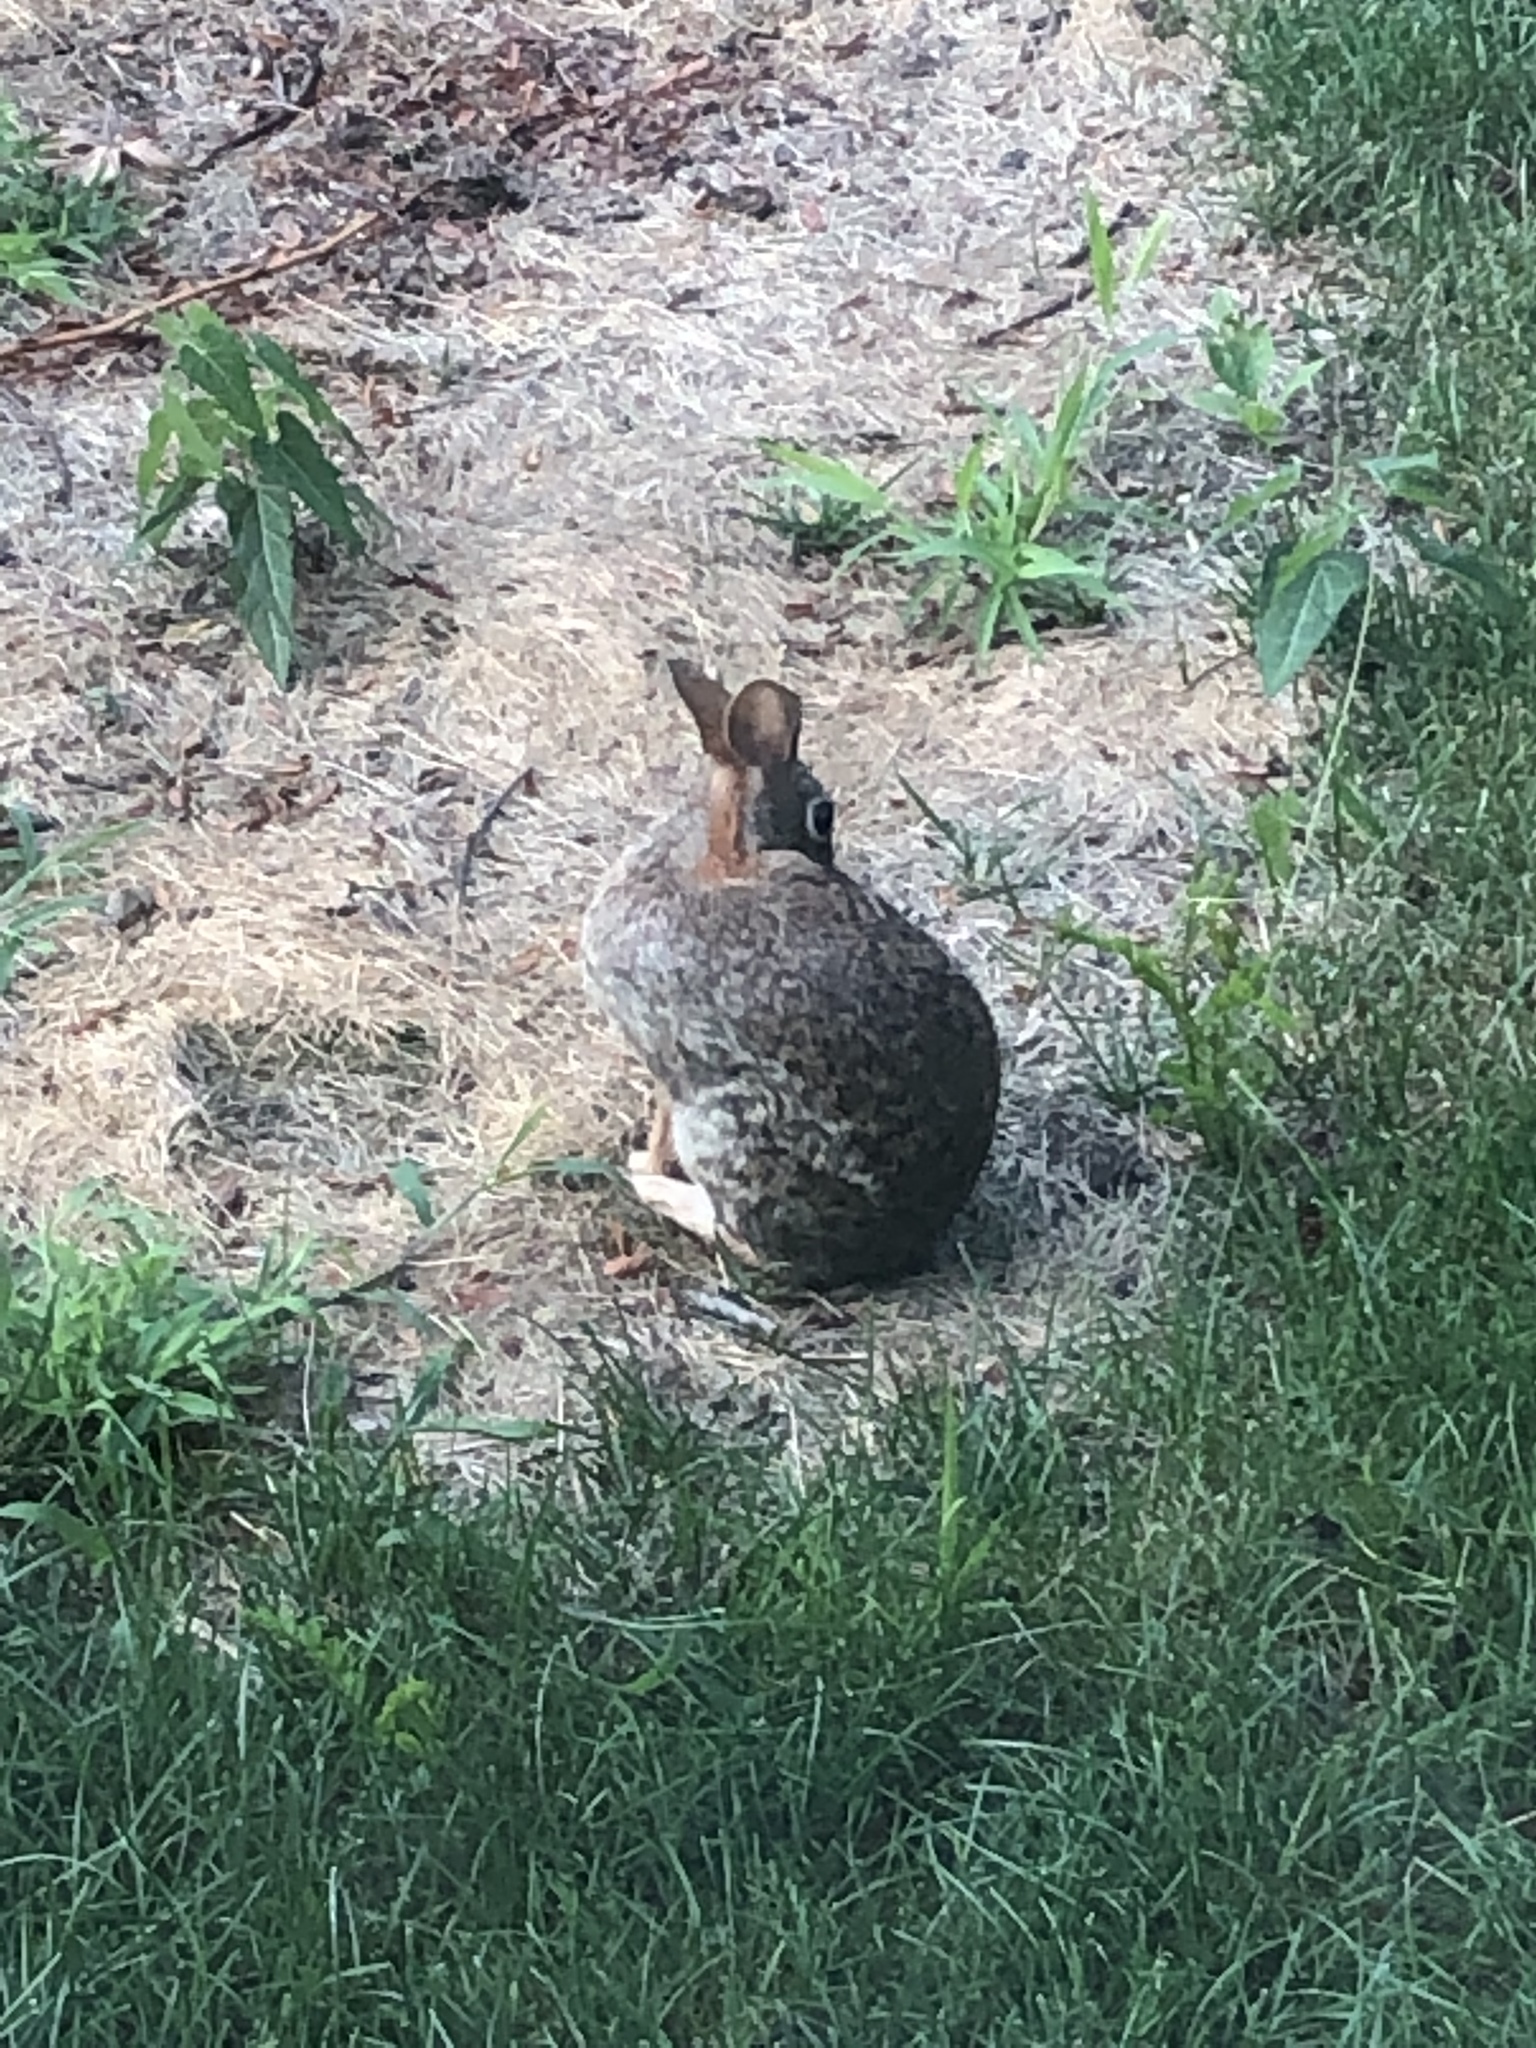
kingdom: Animalia
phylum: Chordata
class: Mammalia
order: Lagomorpha
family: Leporidae
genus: Sylvilagus
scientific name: Sylvilagus floridanus
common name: Eastern cottontail
